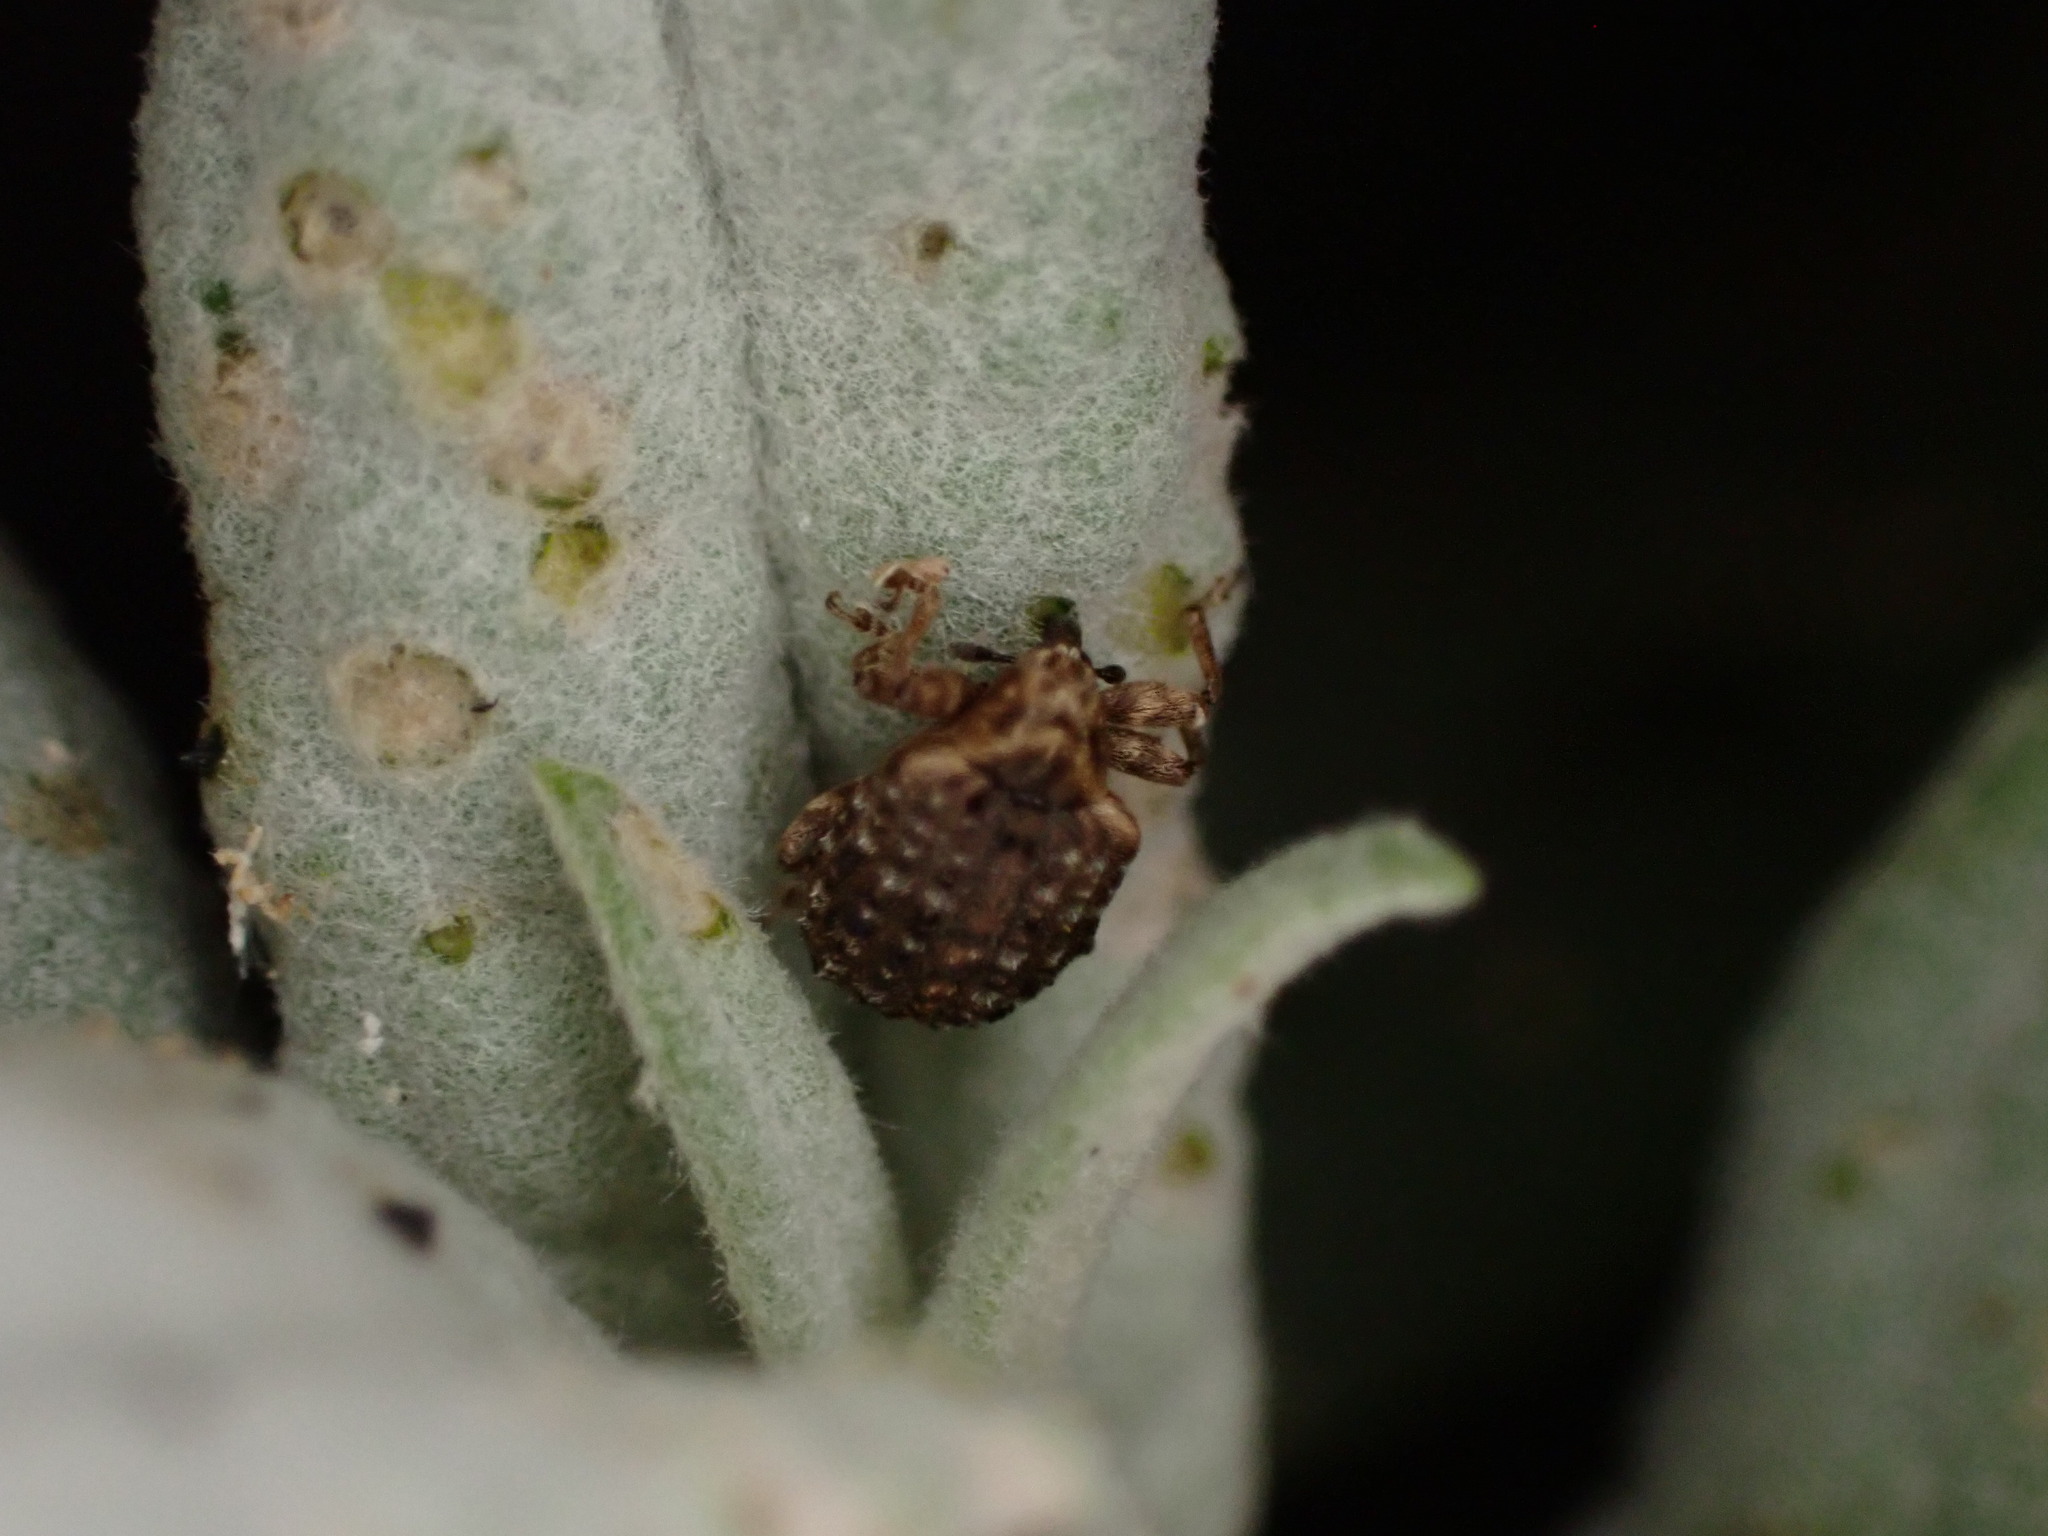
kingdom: Animalia
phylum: Arthropoda
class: Insecta
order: Coleoptera
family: Curculionidae
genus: Cleopus
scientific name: Cleopus japonicus
